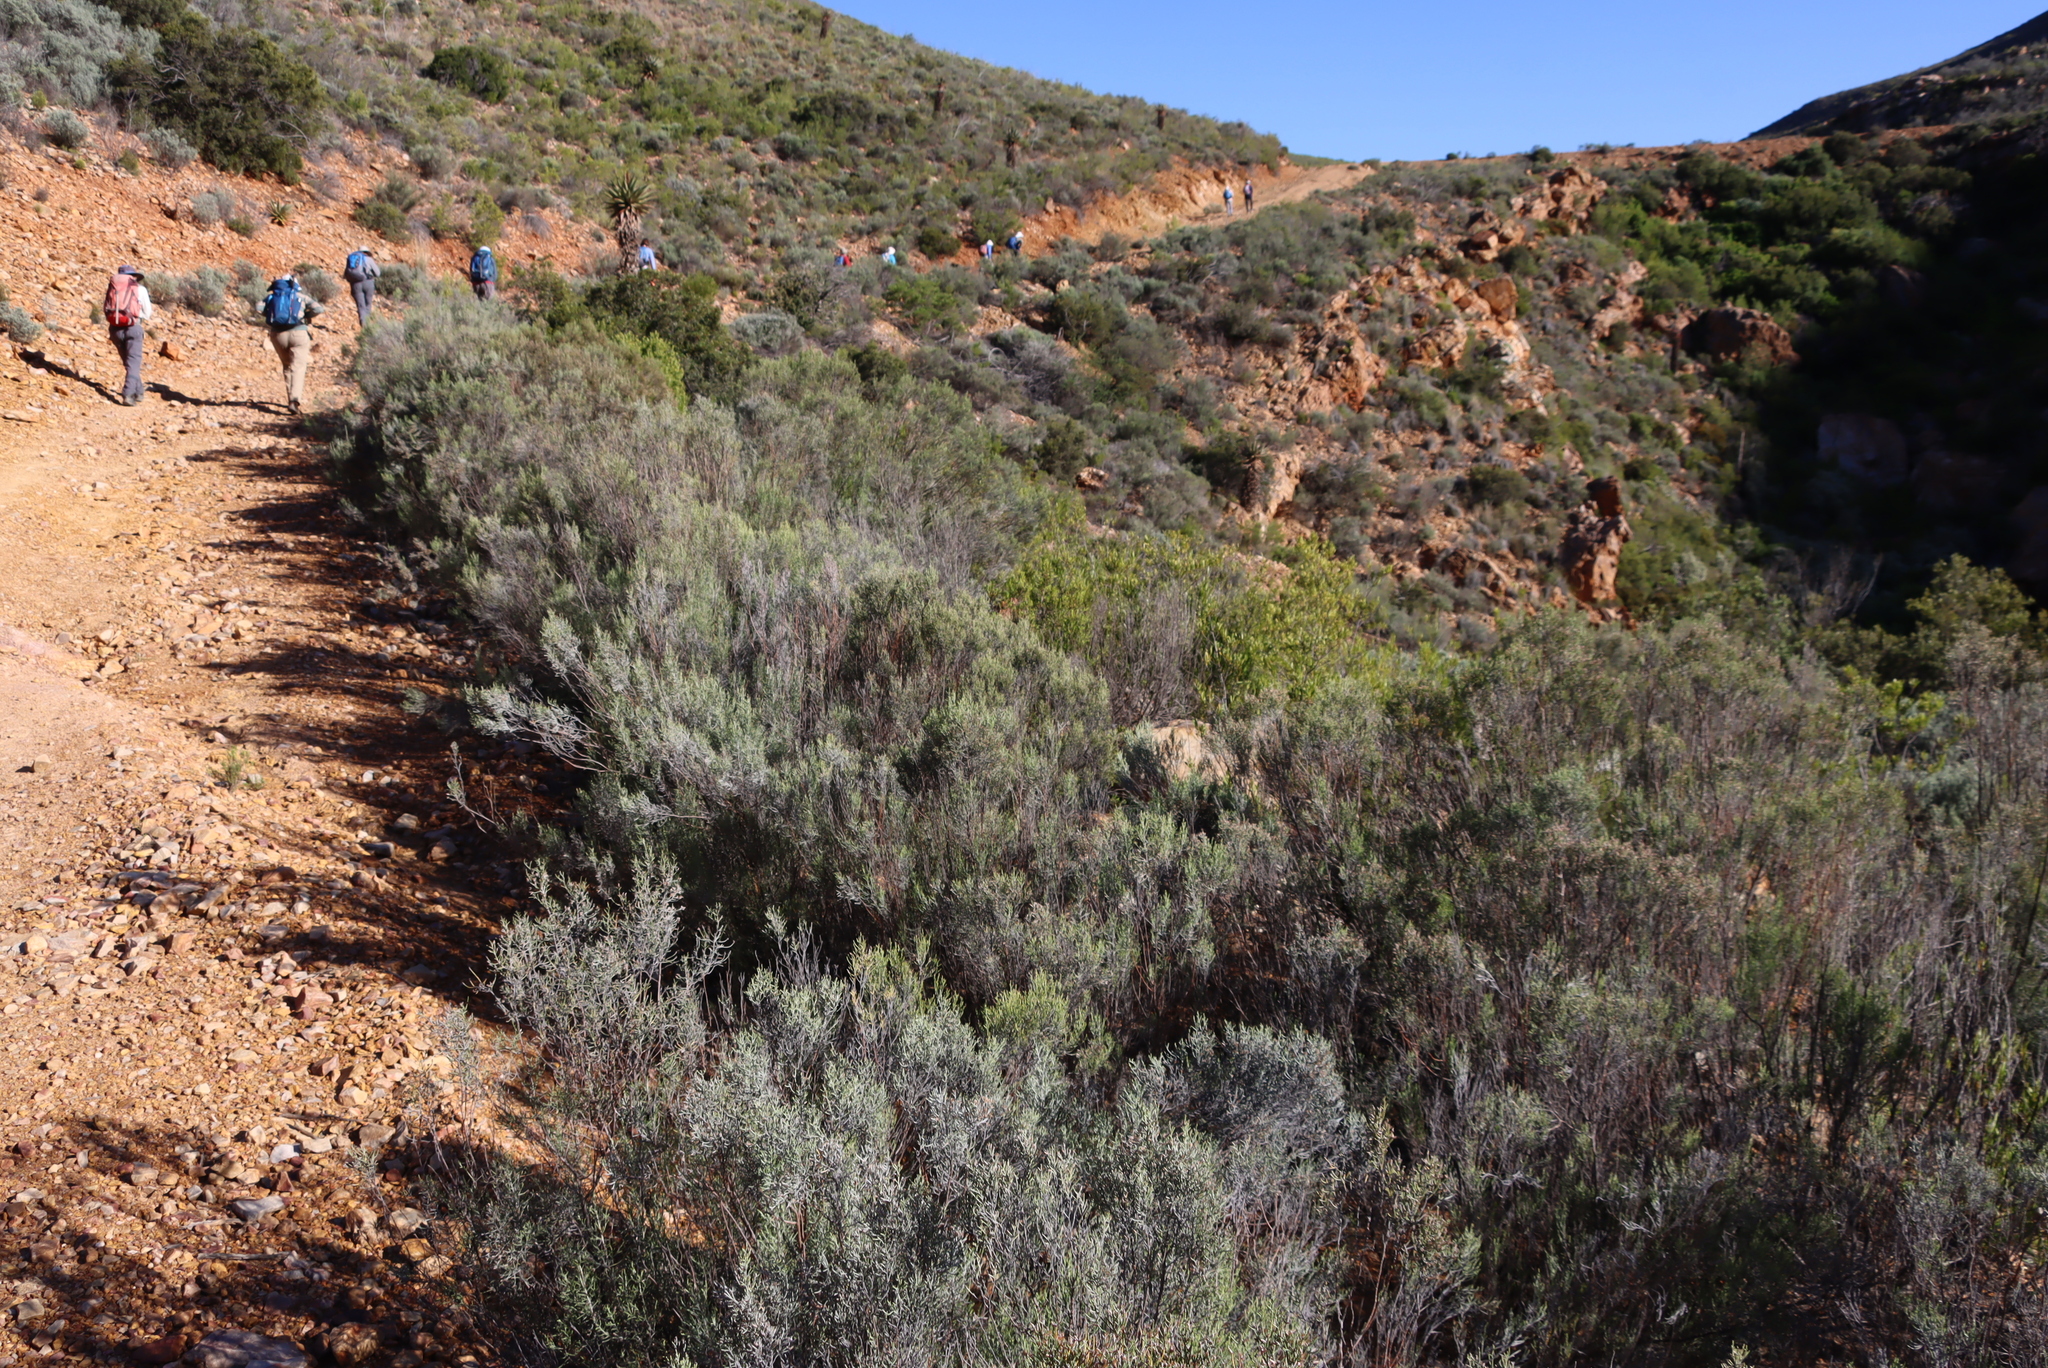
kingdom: Plantae
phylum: Tracheophyta
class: Magnoliopsida
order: Asterales
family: Asteraceae
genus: Dicerothamnus
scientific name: Dicerothamnus rhinocerotis
